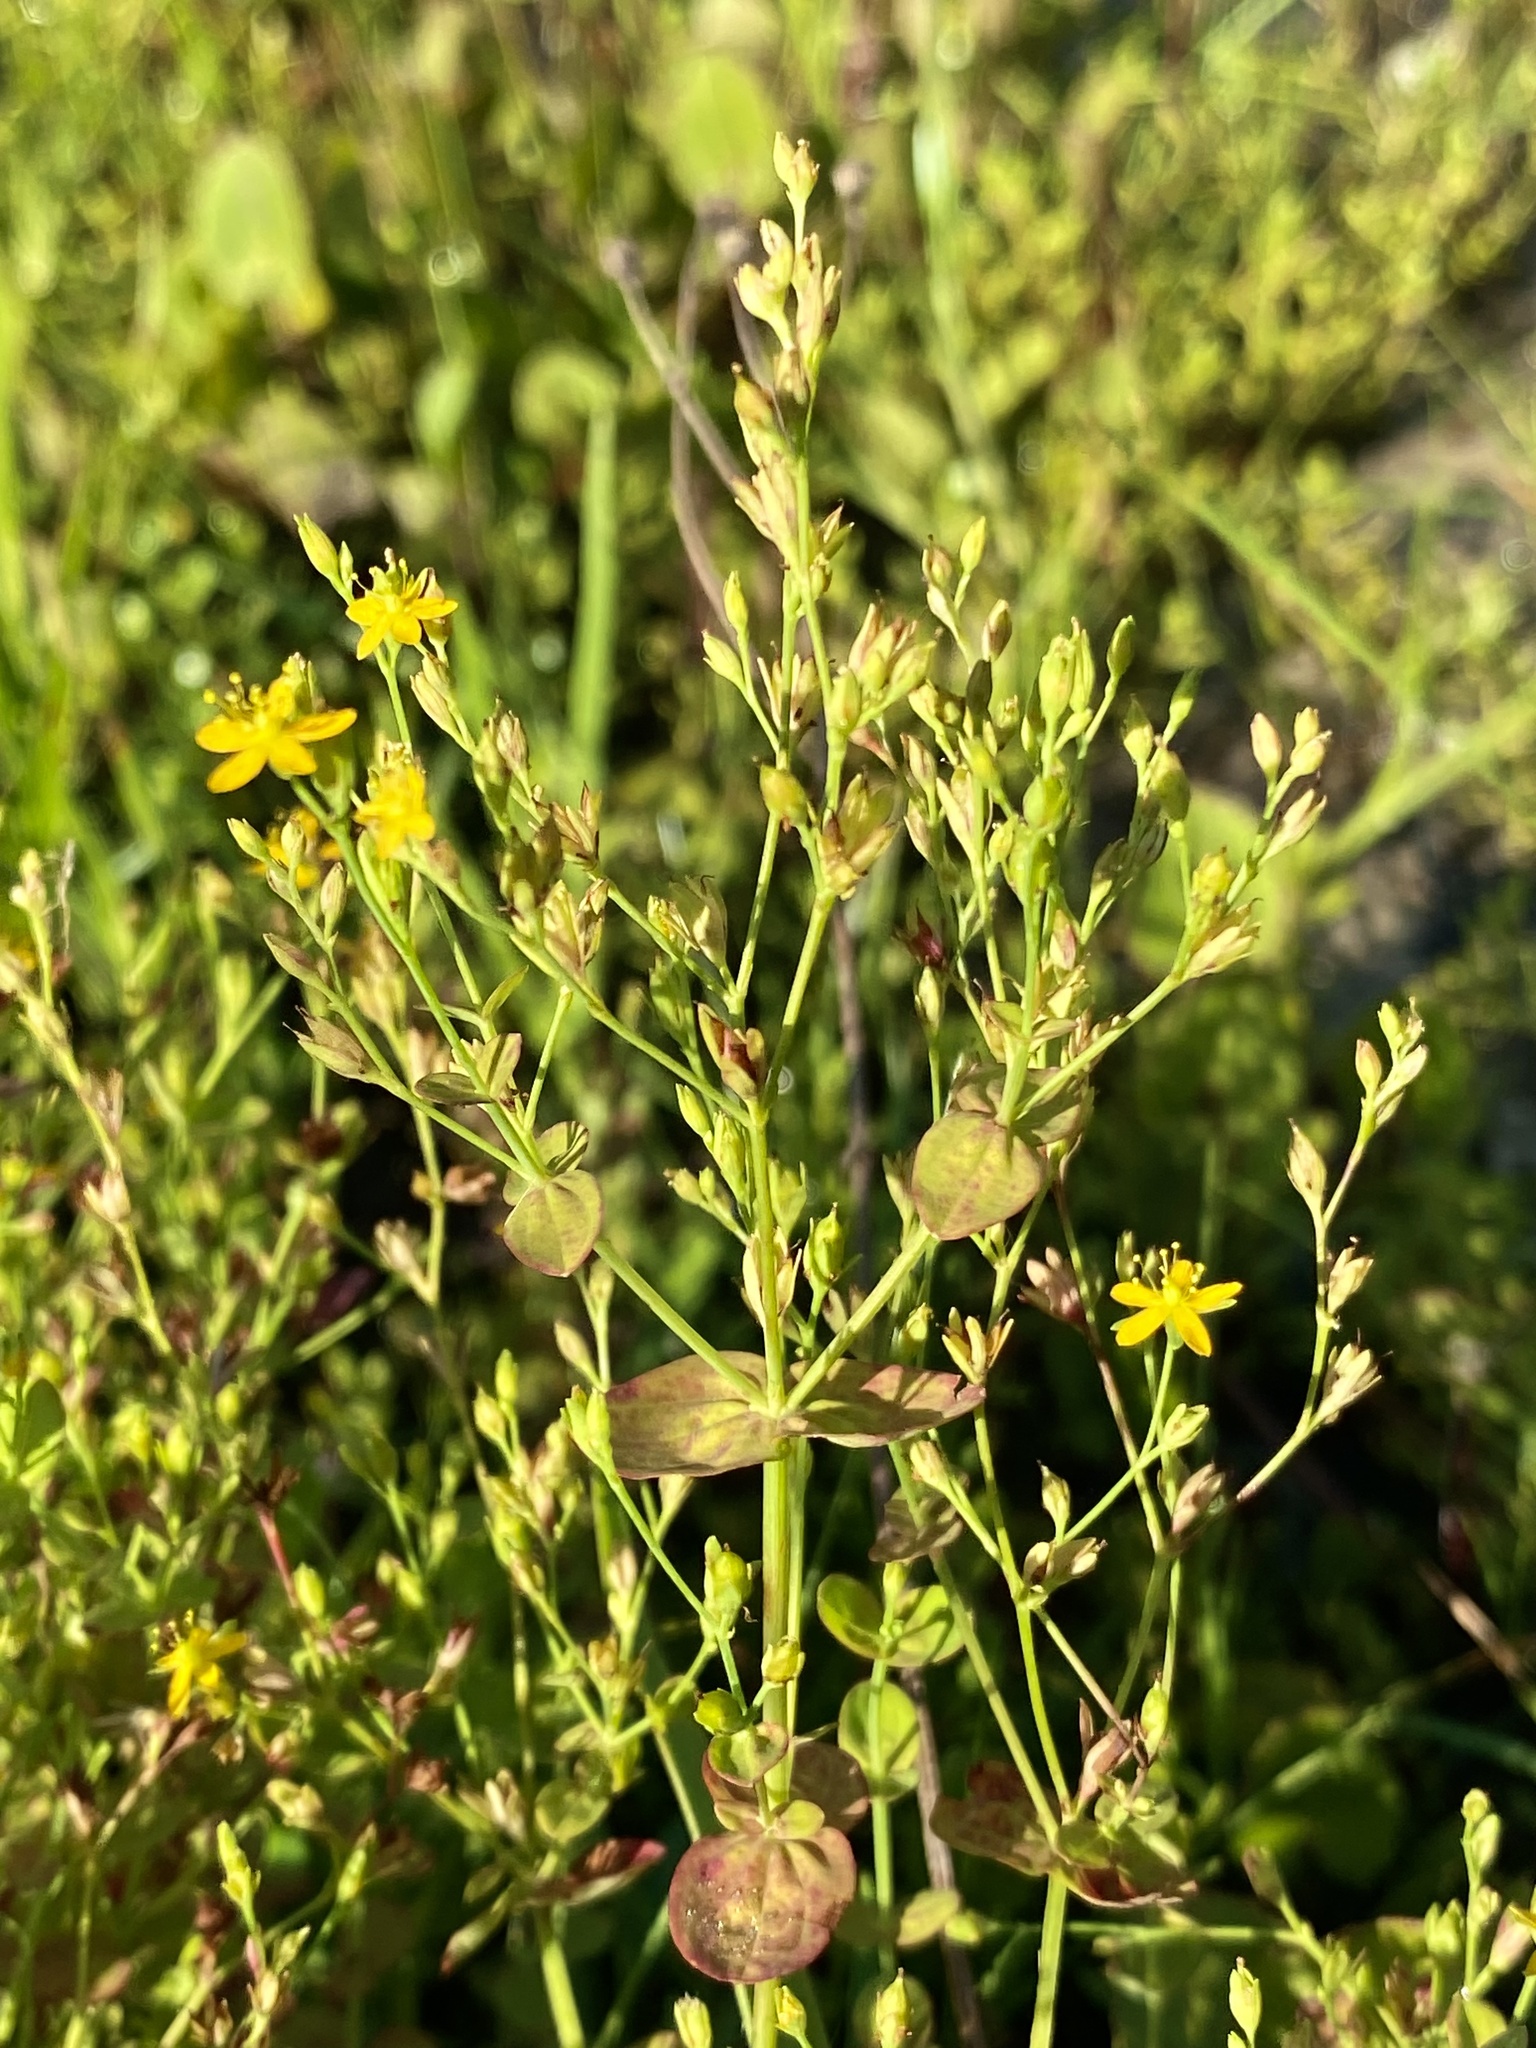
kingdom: Plantae
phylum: Tracheophyta
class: Magnoliopsida
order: Malpighiales
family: Hypericaceae
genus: Hypericum
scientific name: Hypericum mutilum
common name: Dwarf st. john's-wort
